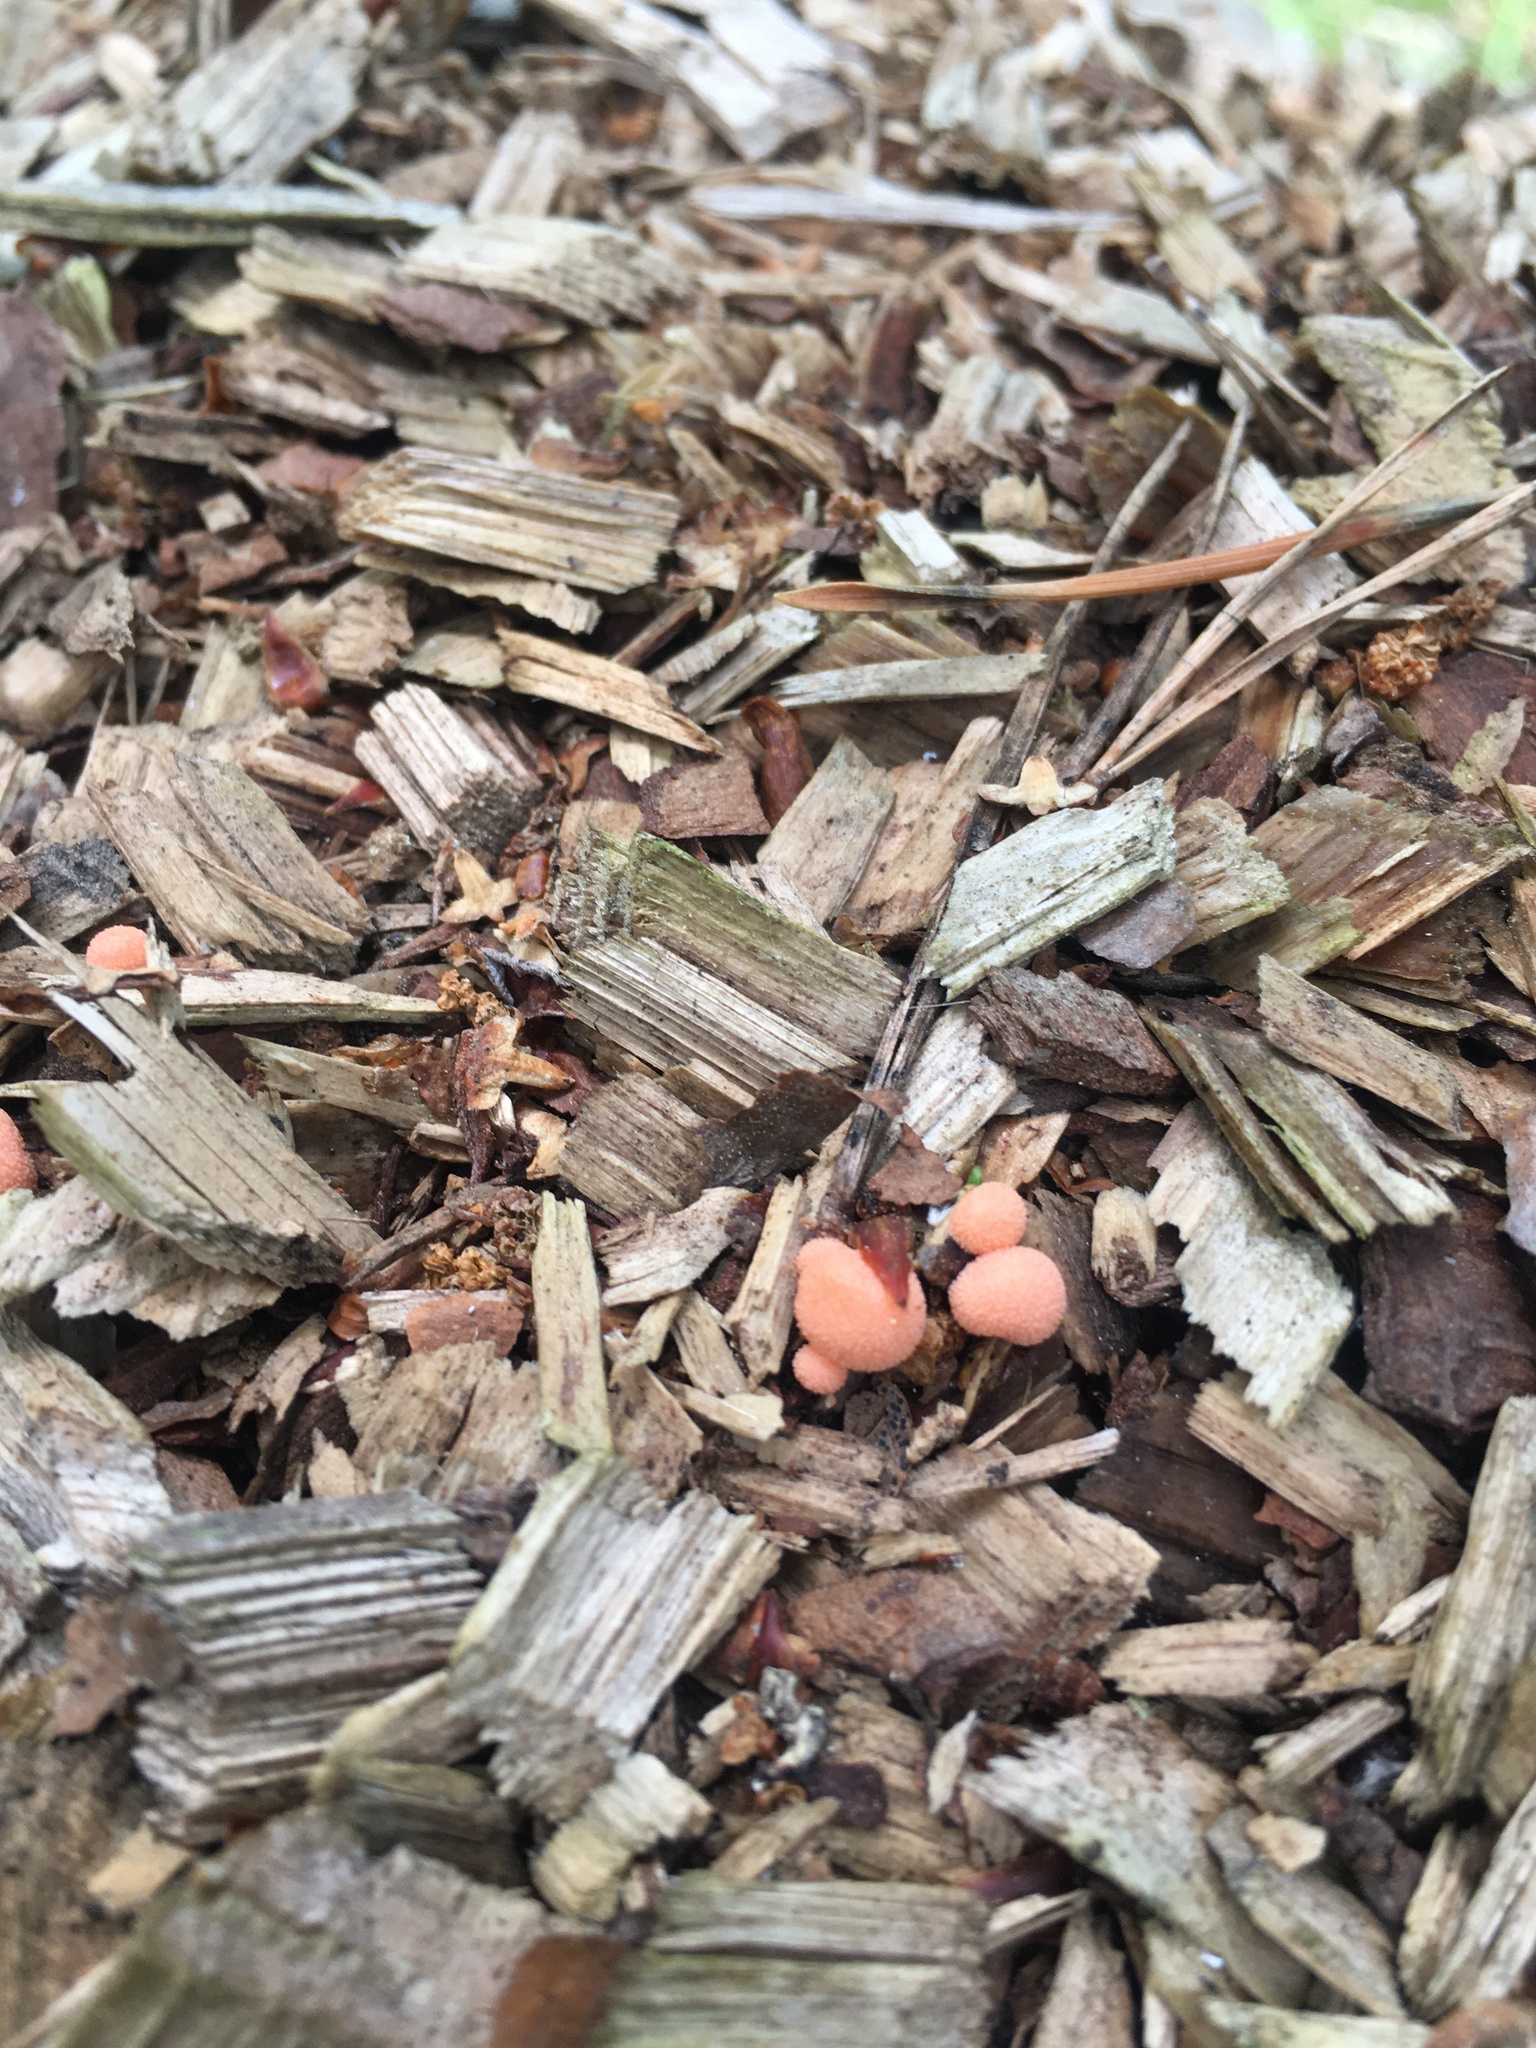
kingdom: Protozoa
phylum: Mycetozoa
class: Myxomycetes
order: Cribrariales
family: Tubiferaceae
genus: Lycogala
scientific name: Lycogala epidendrum
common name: Wolf's milk
